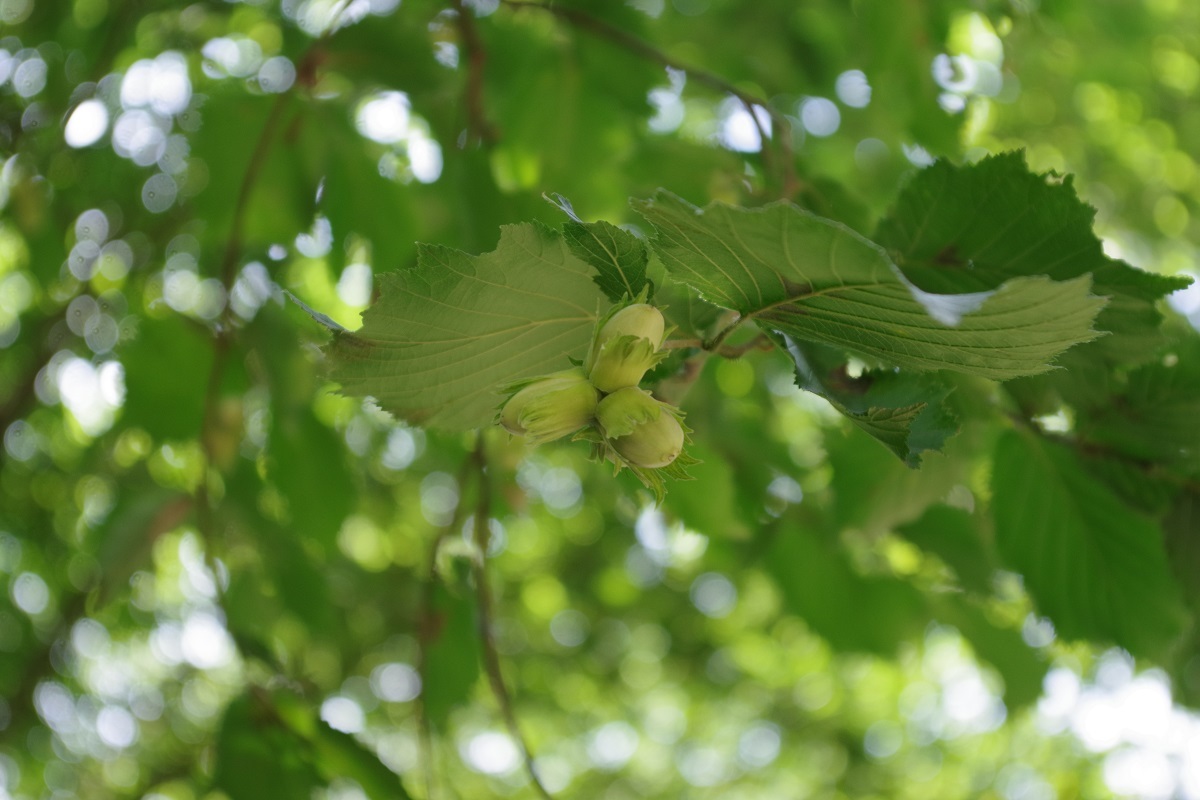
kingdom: Plantae
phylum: Tracheophyta
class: Magnoliopsida
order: Fagales
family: Betulaceae
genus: Corylus
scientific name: Corylus avellana
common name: European hazel
